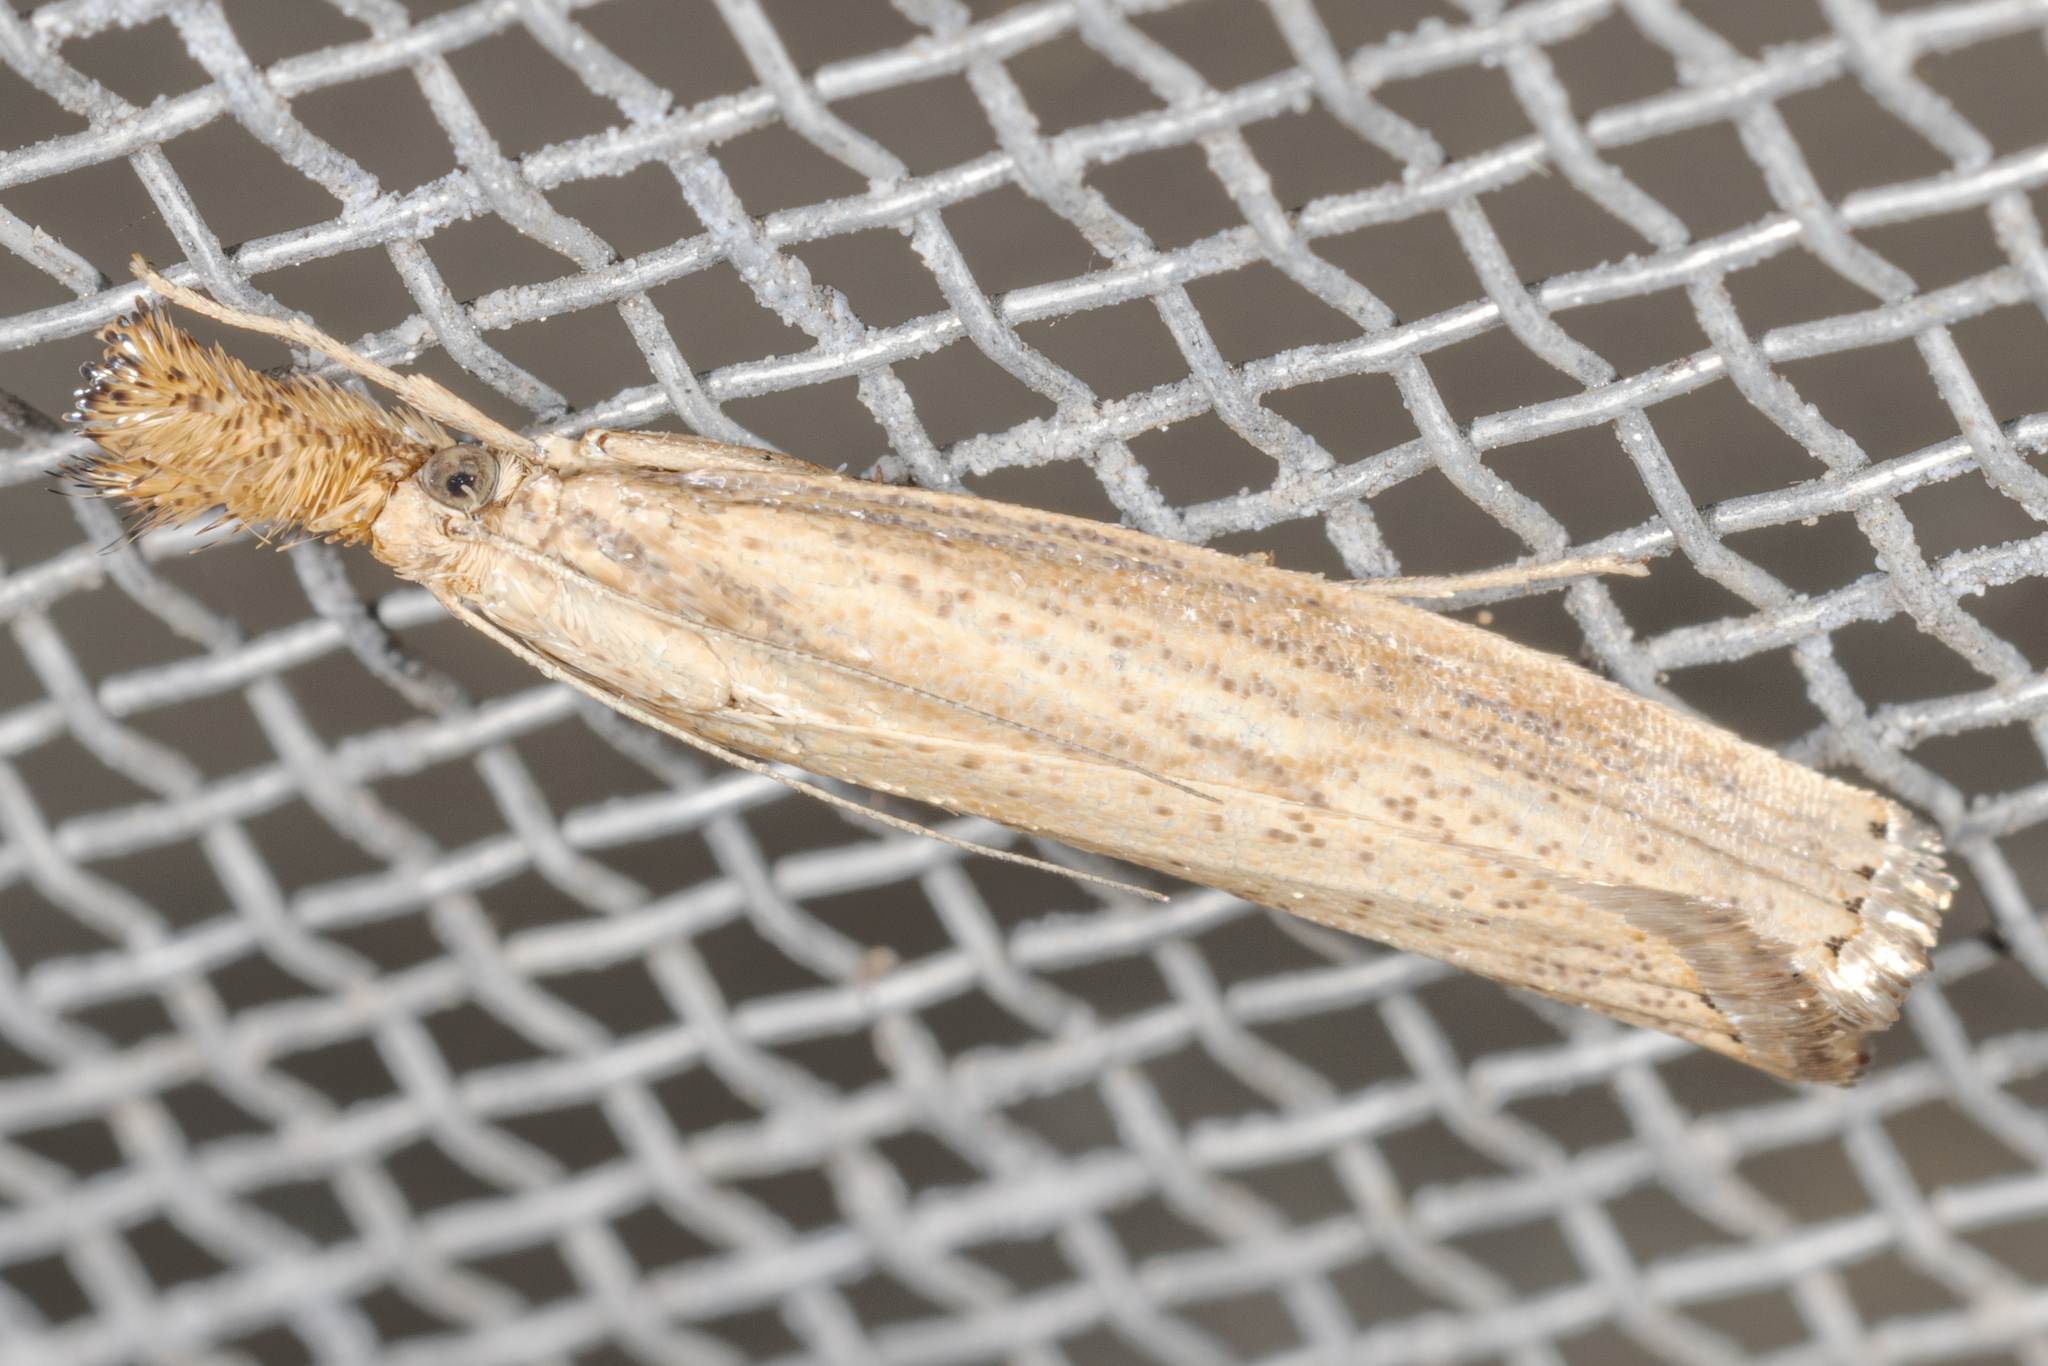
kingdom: Animalia
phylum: Arthropoda
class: Insecta
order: Lepidoptera
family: Crambidae
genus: Agriphila
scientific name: Agriphila vulgivagellus
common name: Vagabond crambus moth
